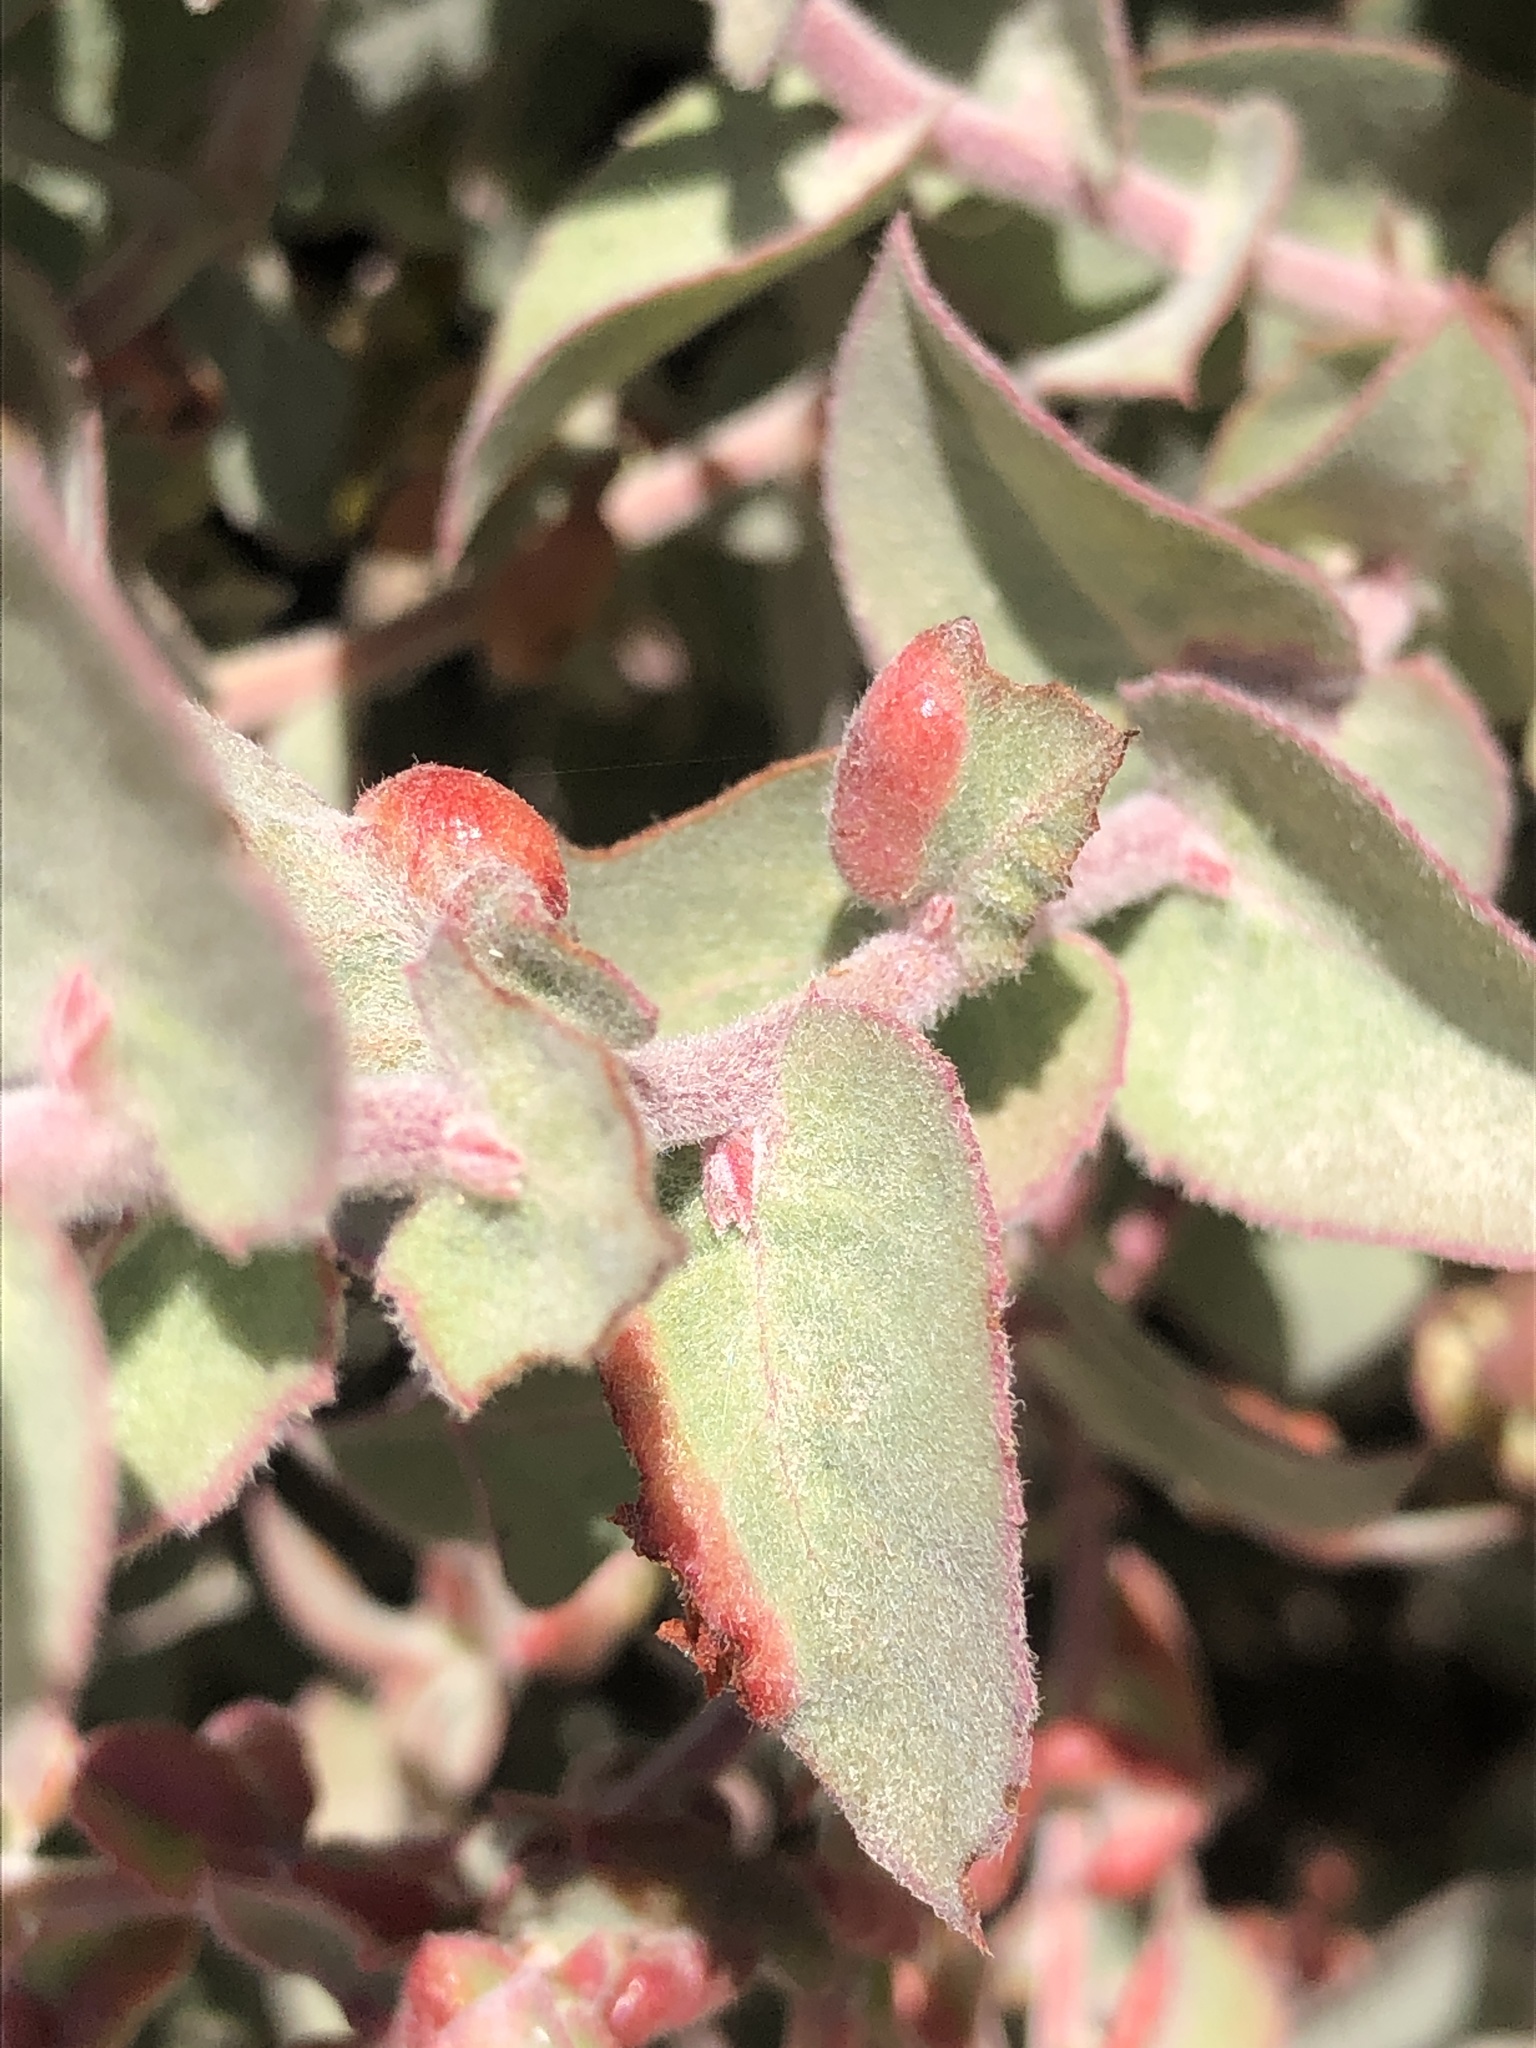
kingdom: Plantae
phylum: Tracheophyta
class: Magnoliopsida
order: Ericales
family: Ericaceae
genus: Arctostaphylos
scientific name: Arctostaphylos luciana
